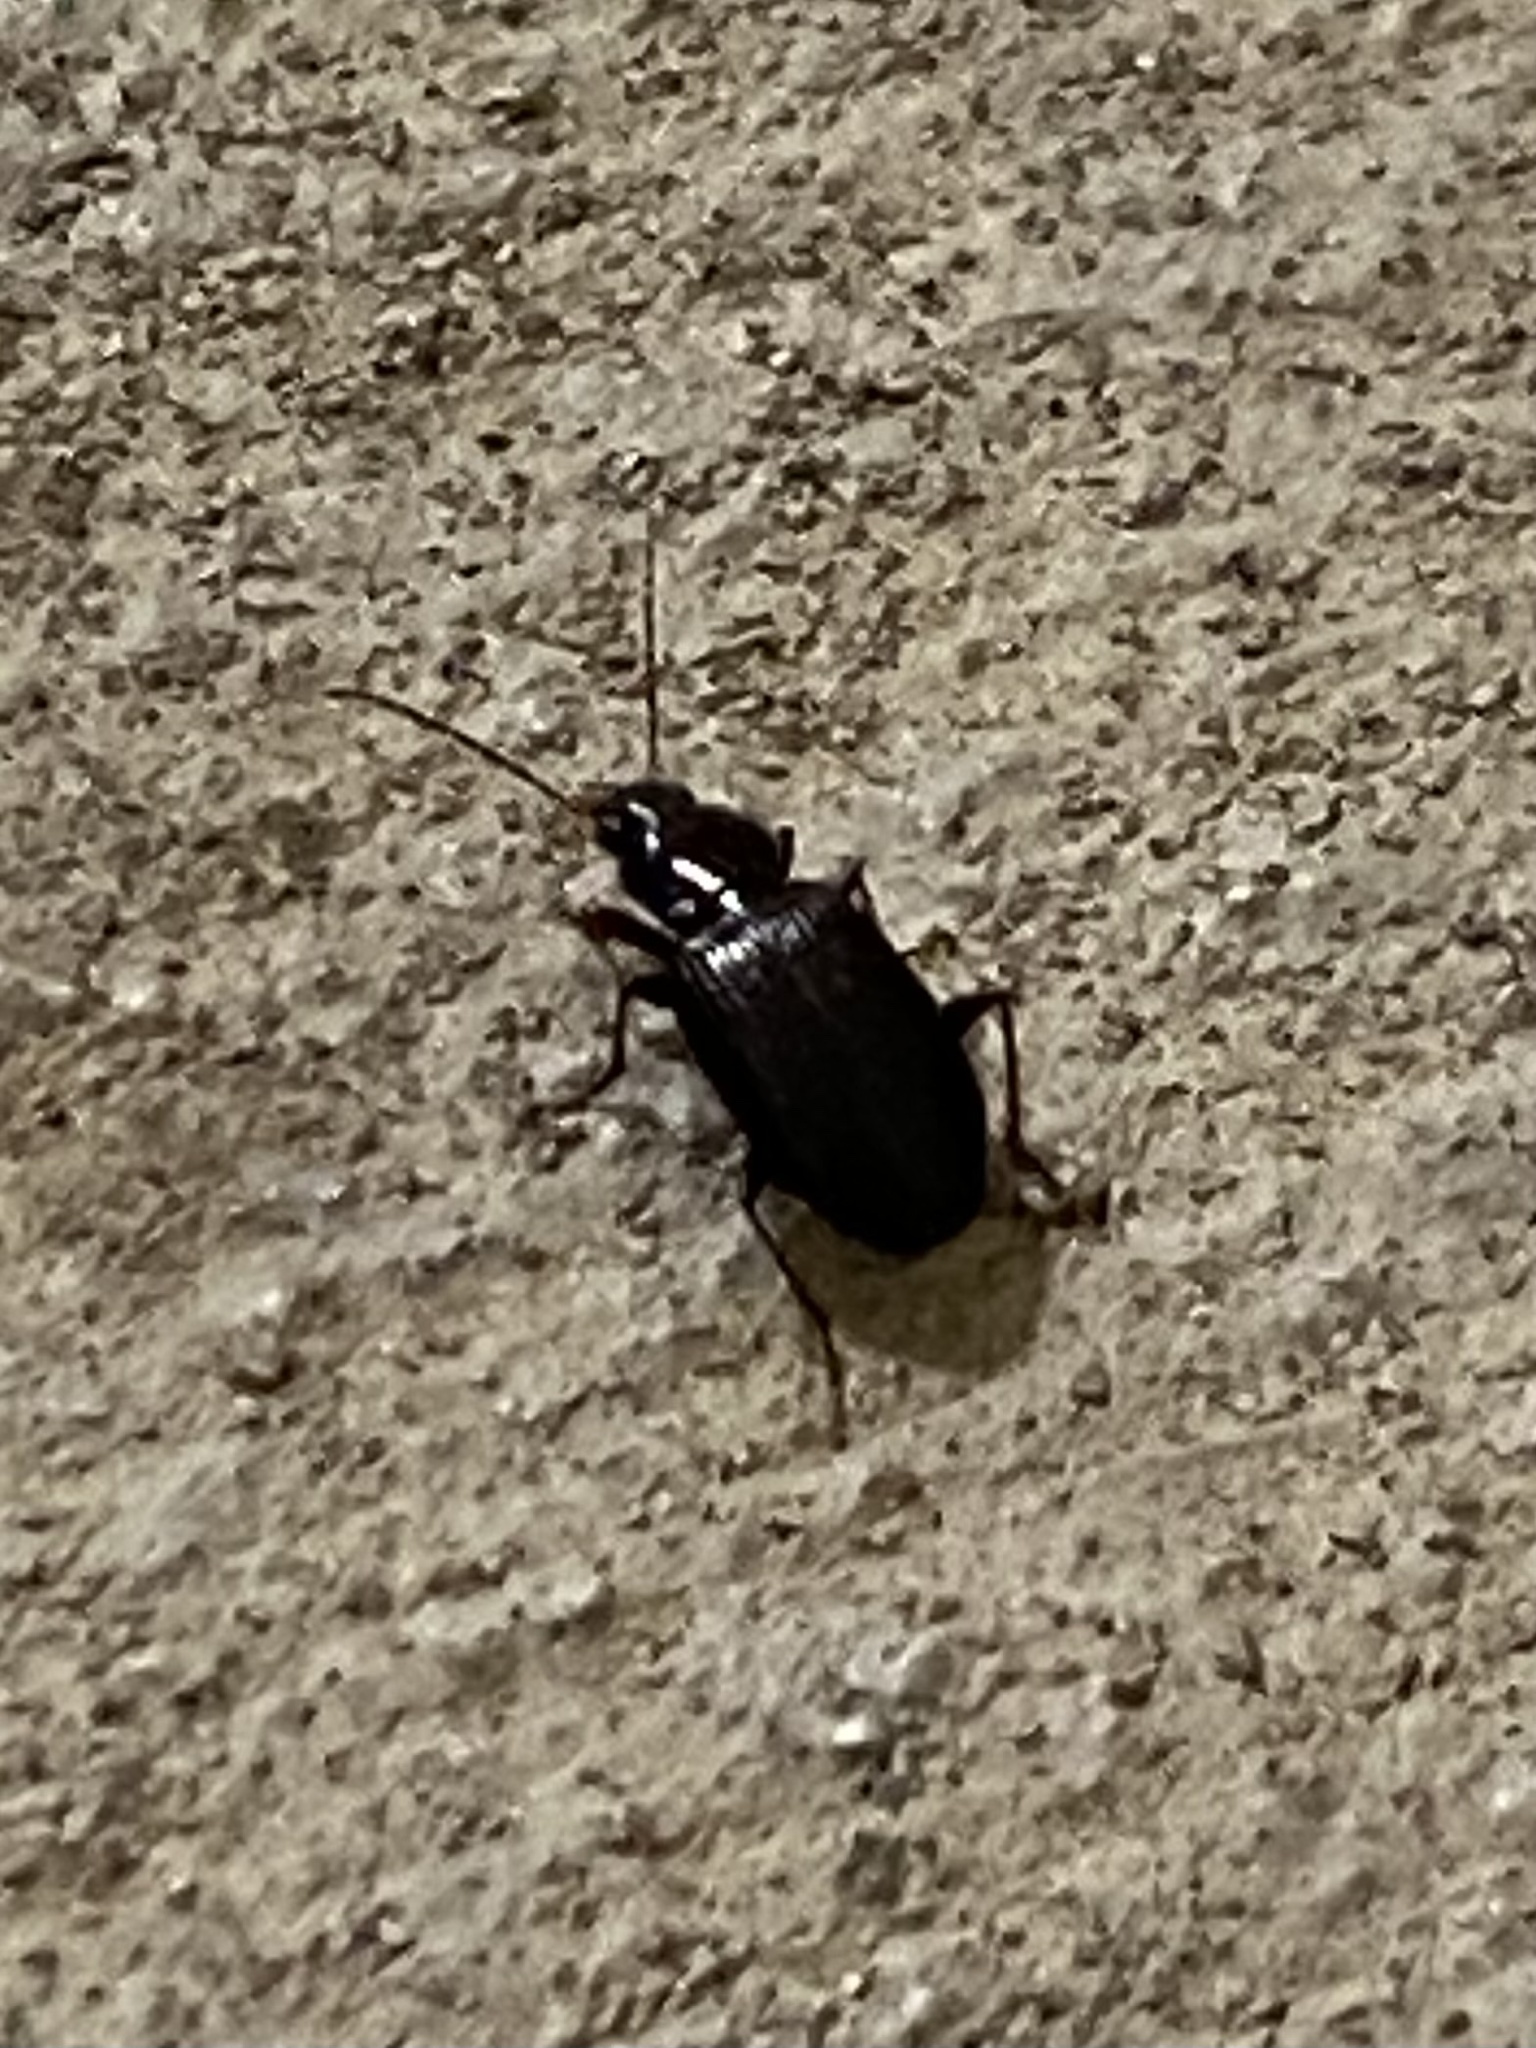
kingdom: Animalia
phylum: Arthropoda
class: Insecta
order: Coleoptera
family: Carabidae
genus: Agonum
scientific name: Agonum punctiforme
